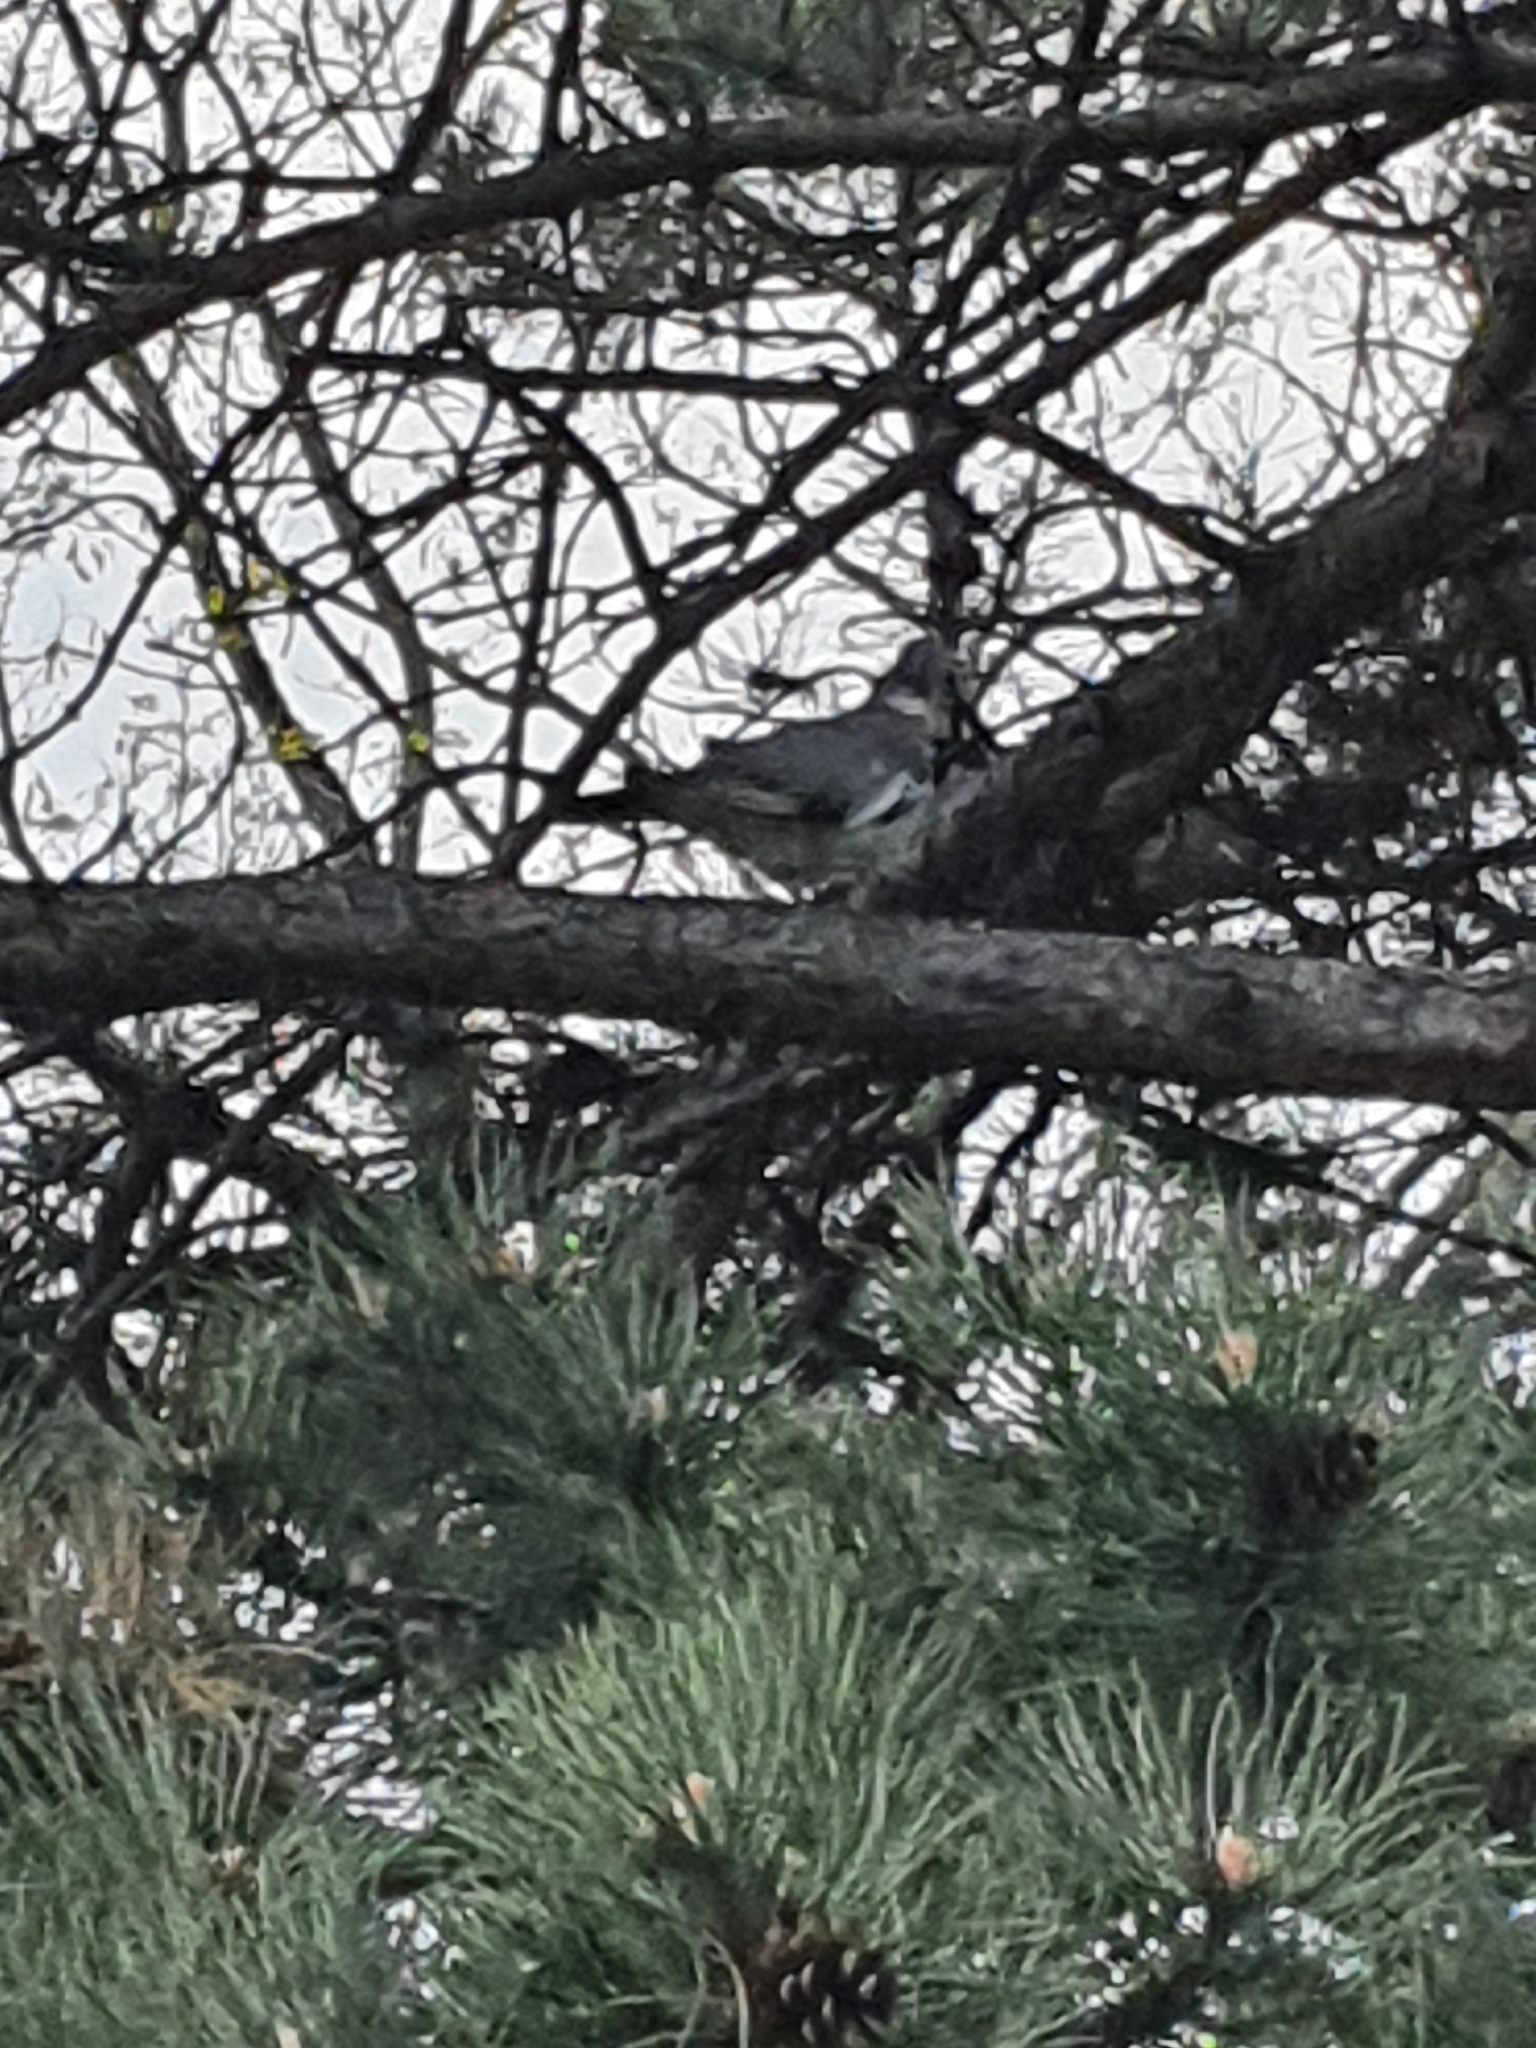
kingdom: Animalia
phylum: Chordata
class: Aves
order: Columbiformes
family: Columbidae
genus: Columba
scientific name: Columba palumbus
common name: Common wood pigeon
